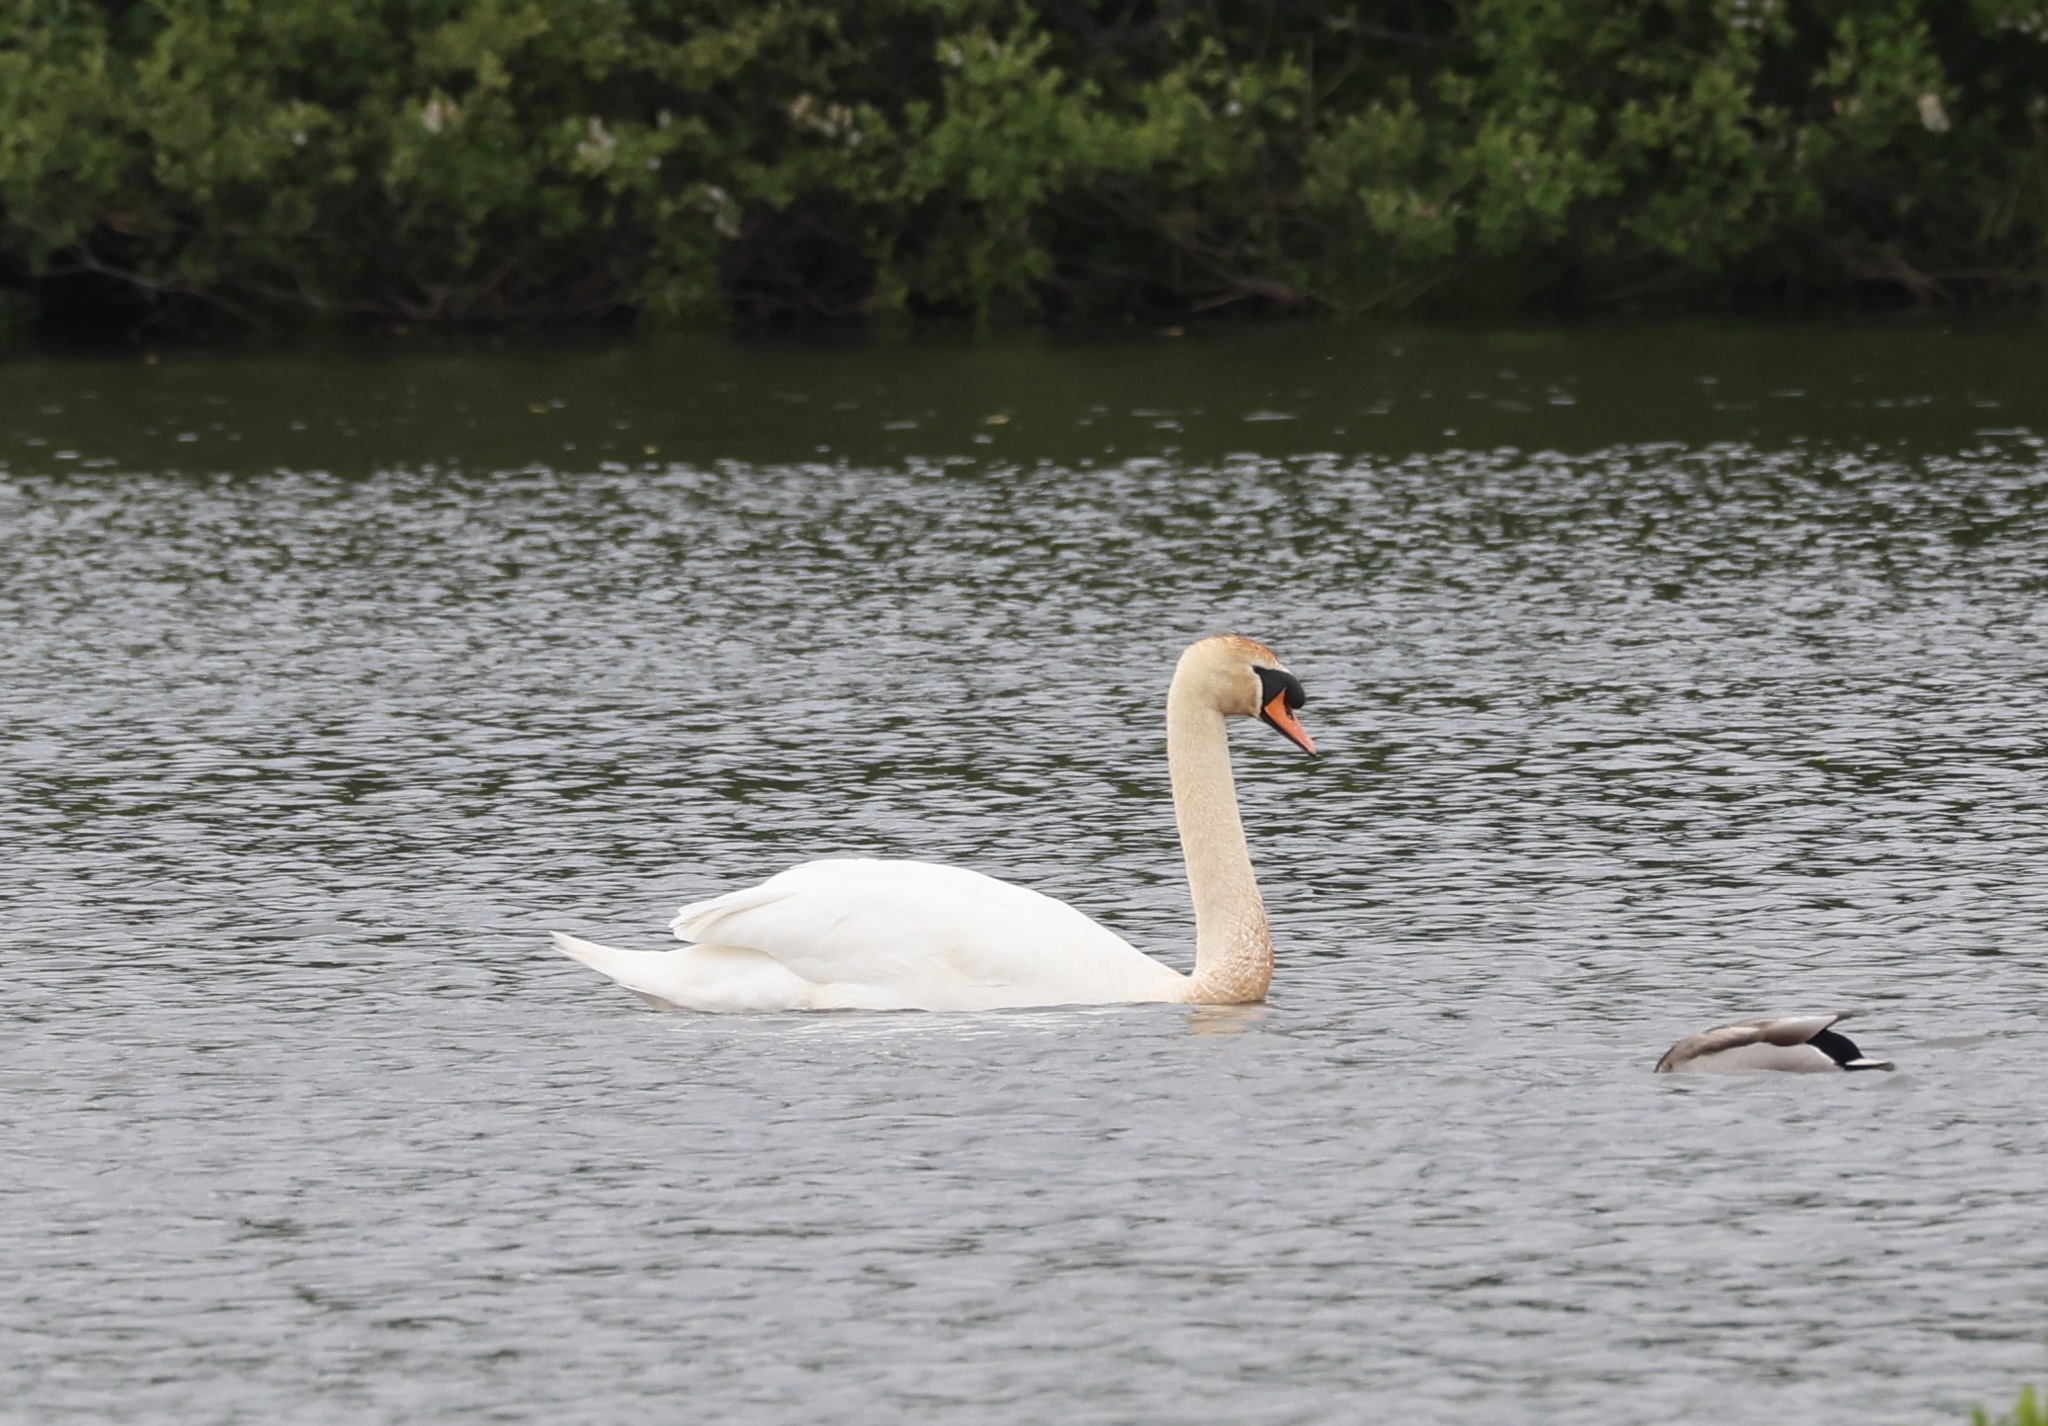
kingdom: Animalia
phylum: Chordata
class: Aves
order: Anseriformes
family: Anatidae
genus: Cygnus
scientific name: Cygnus olor
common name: Mute swan
